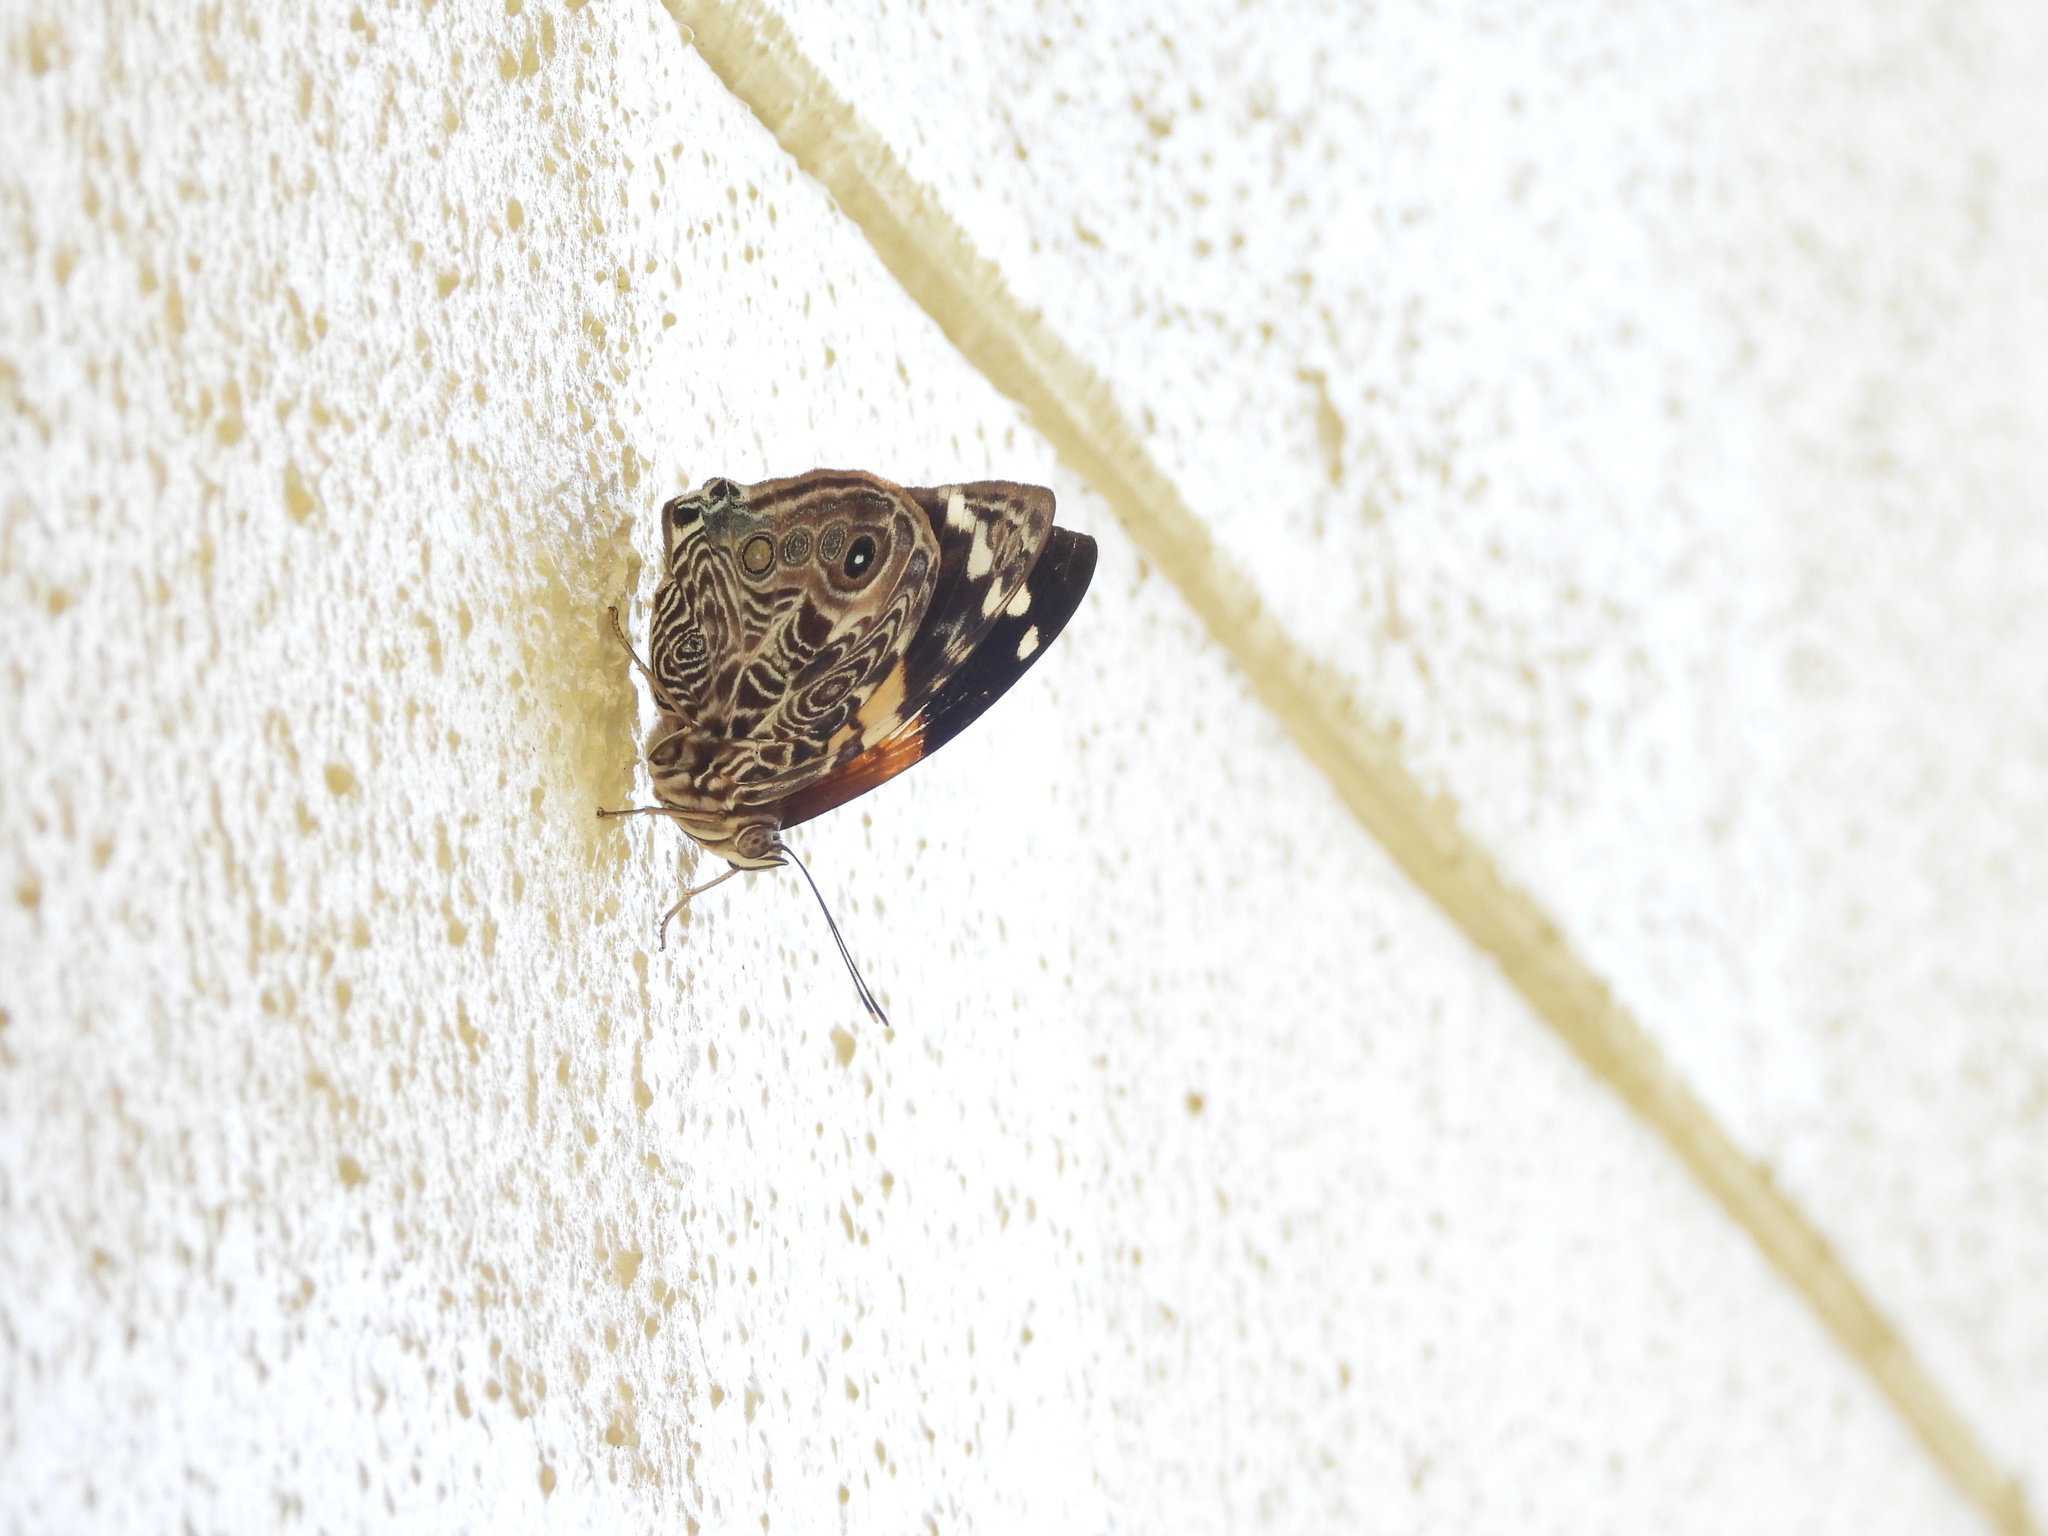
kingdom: Animalia
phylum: Arthropoda
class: Insecta
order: Lepidoptera
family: Nymphalidae
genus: Smyrna
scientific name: Smyrna blomfildia
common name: Blomfild's beauty
